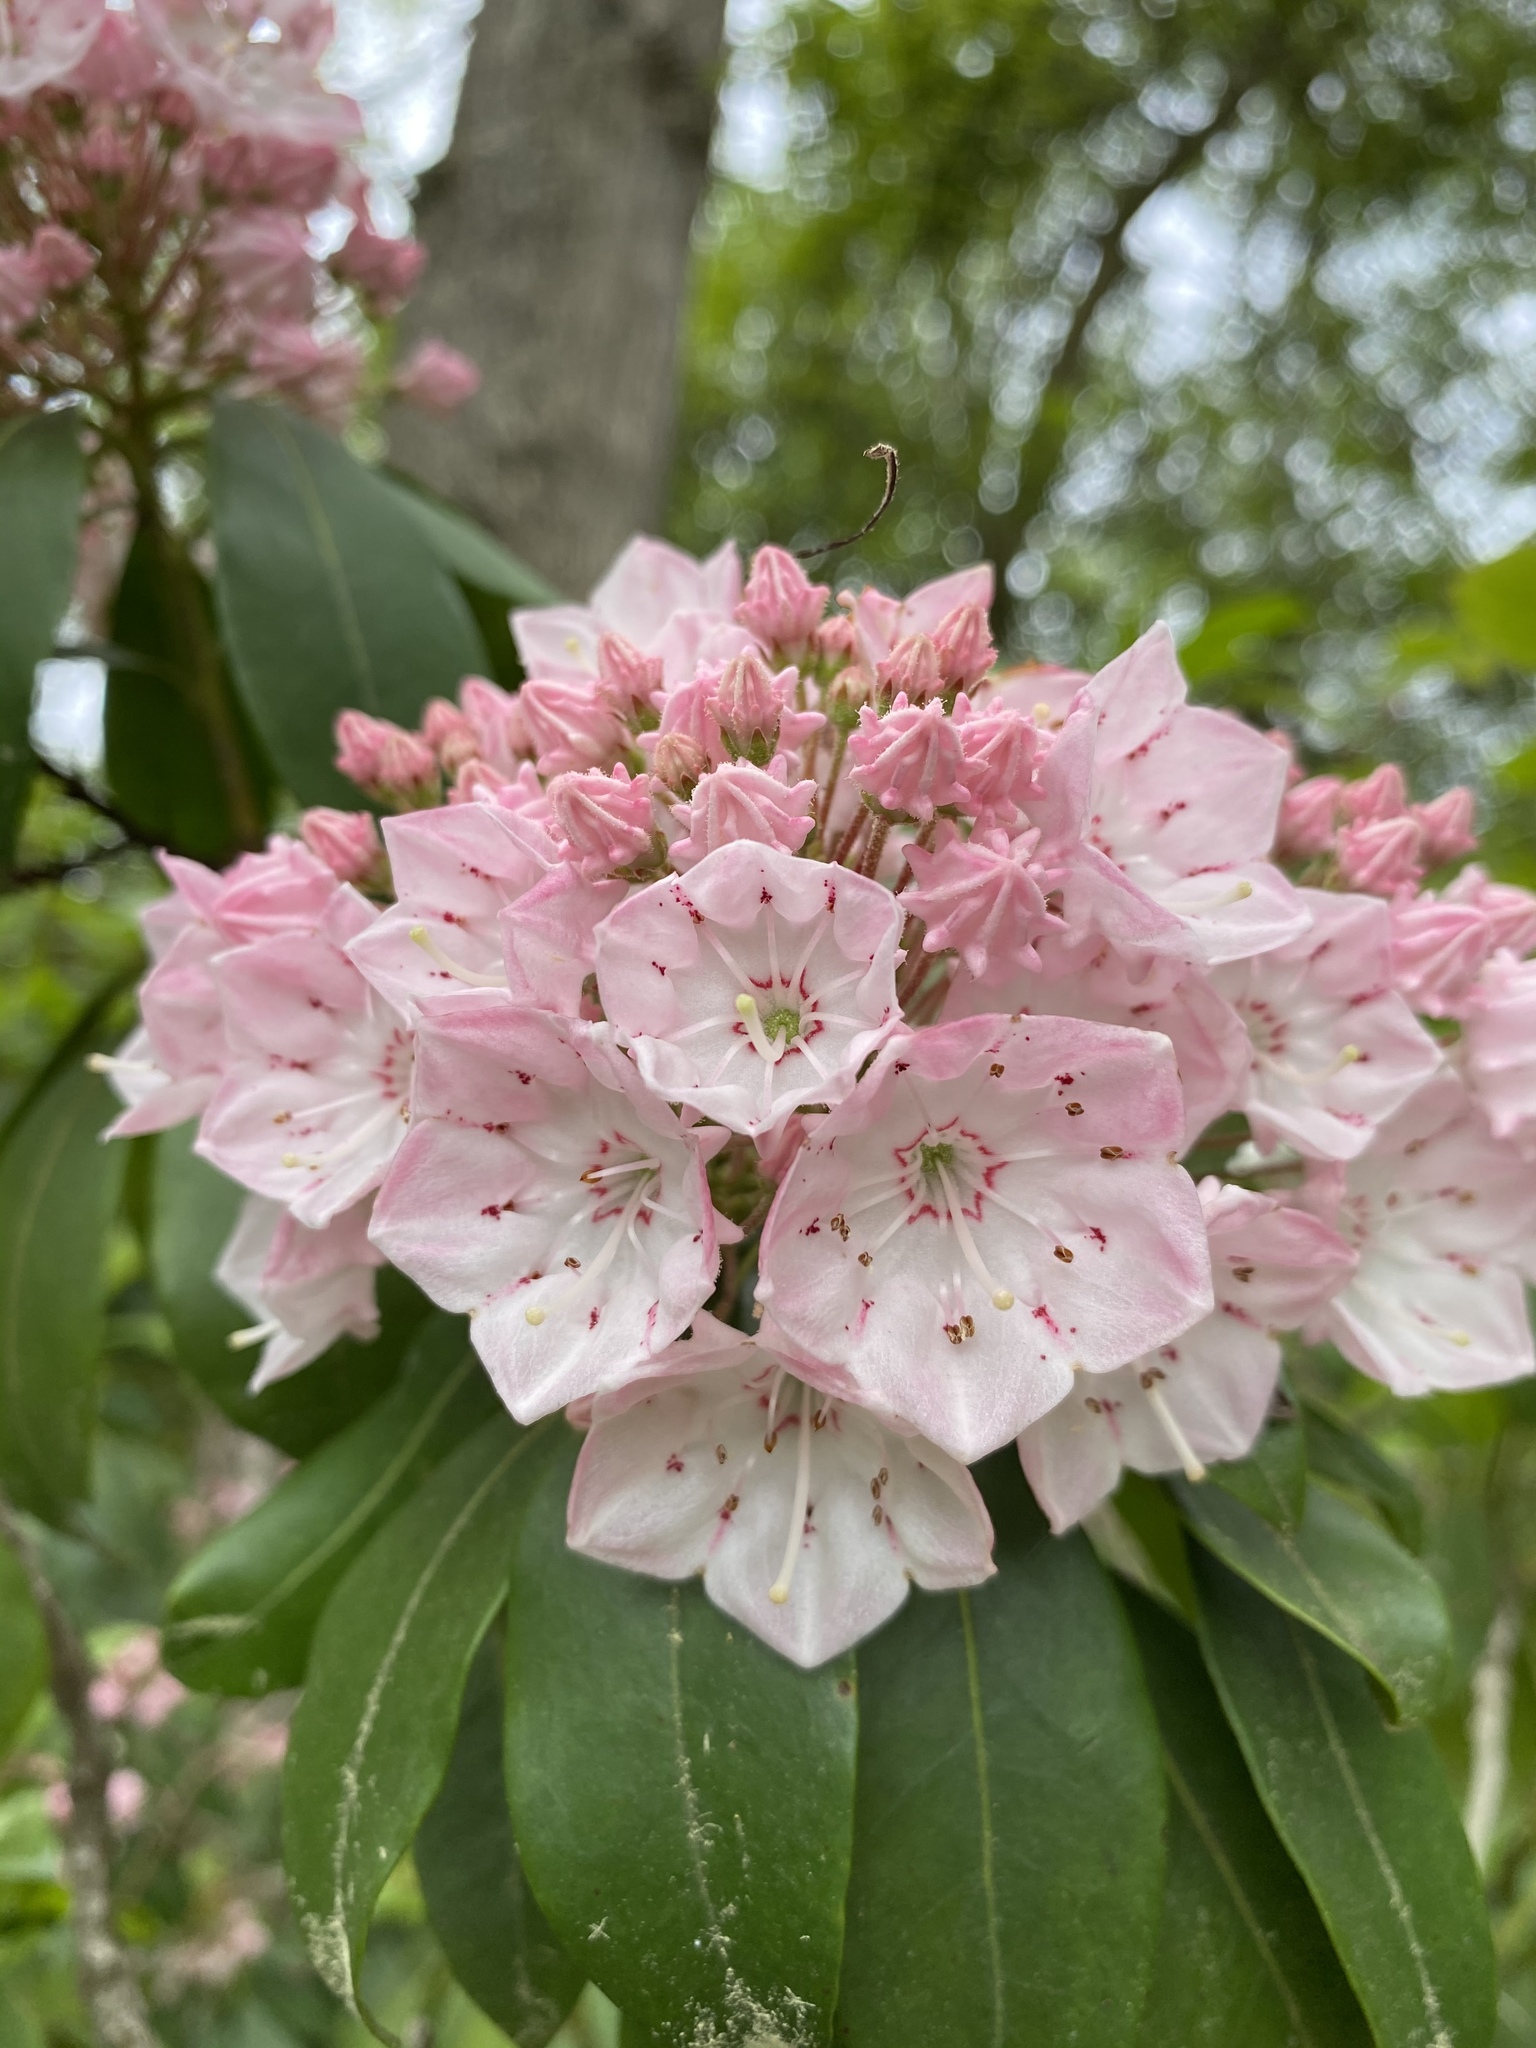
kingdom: Plantae
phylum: Tracheophyta
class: Magnoliopsida
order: Ericales
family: Ericaceae
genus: Kalmia
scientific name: Kalmia latifolia
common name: Mountain-laurel
